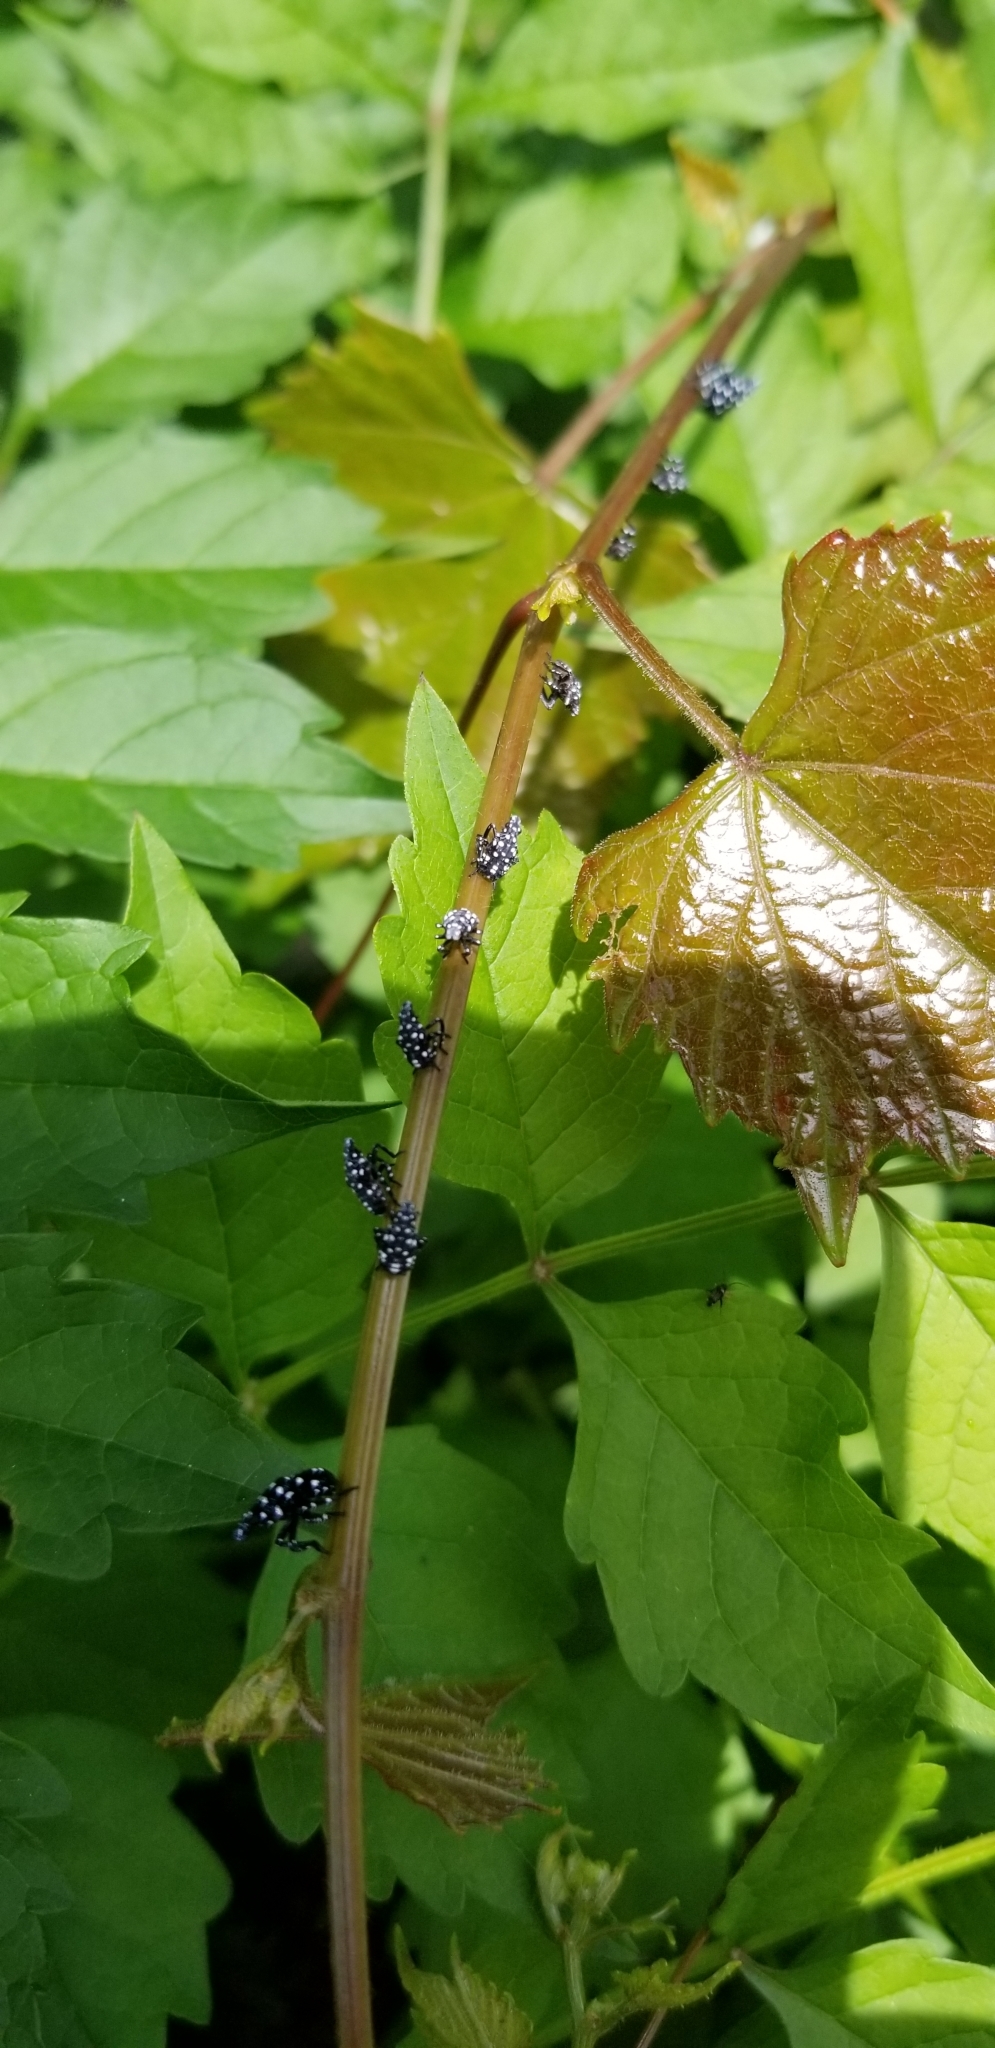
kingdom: Animalia
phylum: Arthropoda
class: Insecta
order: Hemiptera
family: Fulgoridae
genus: Lycorma
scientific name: Lycorma delicatula
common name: Spotted lanternfly
